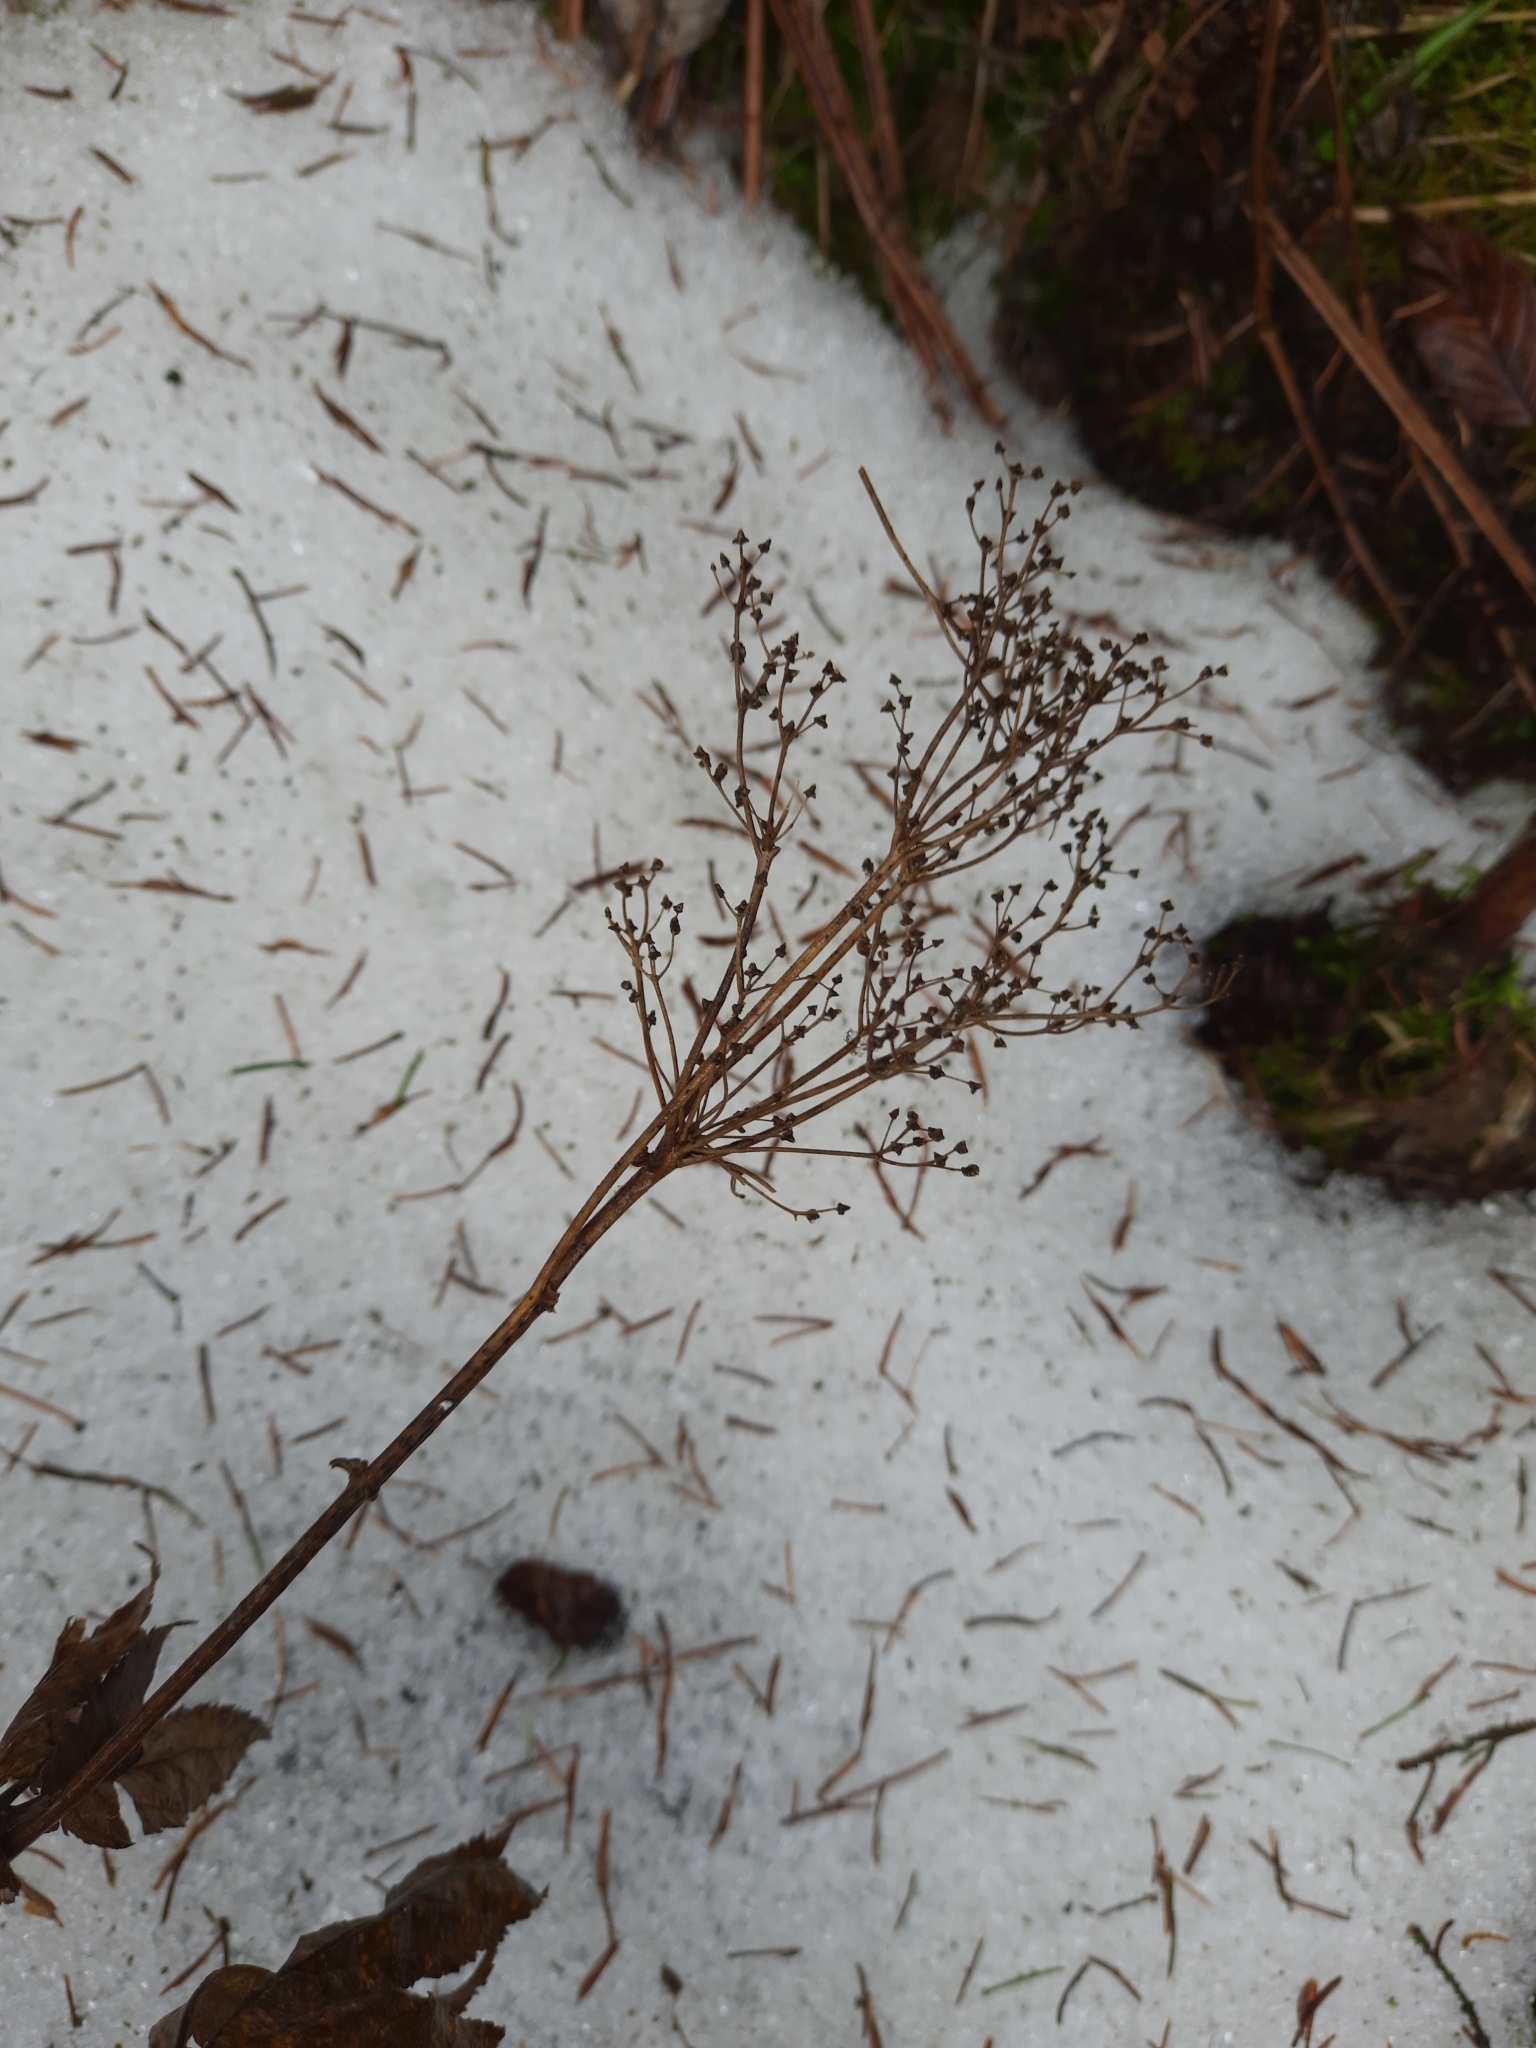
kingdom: Plantae
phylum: Tracheophyta
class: Magnoliopsida
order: Rosales
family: Rosaceae
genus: Filipendula
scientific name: Filipendula ulmaria
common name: Meadowsweet
